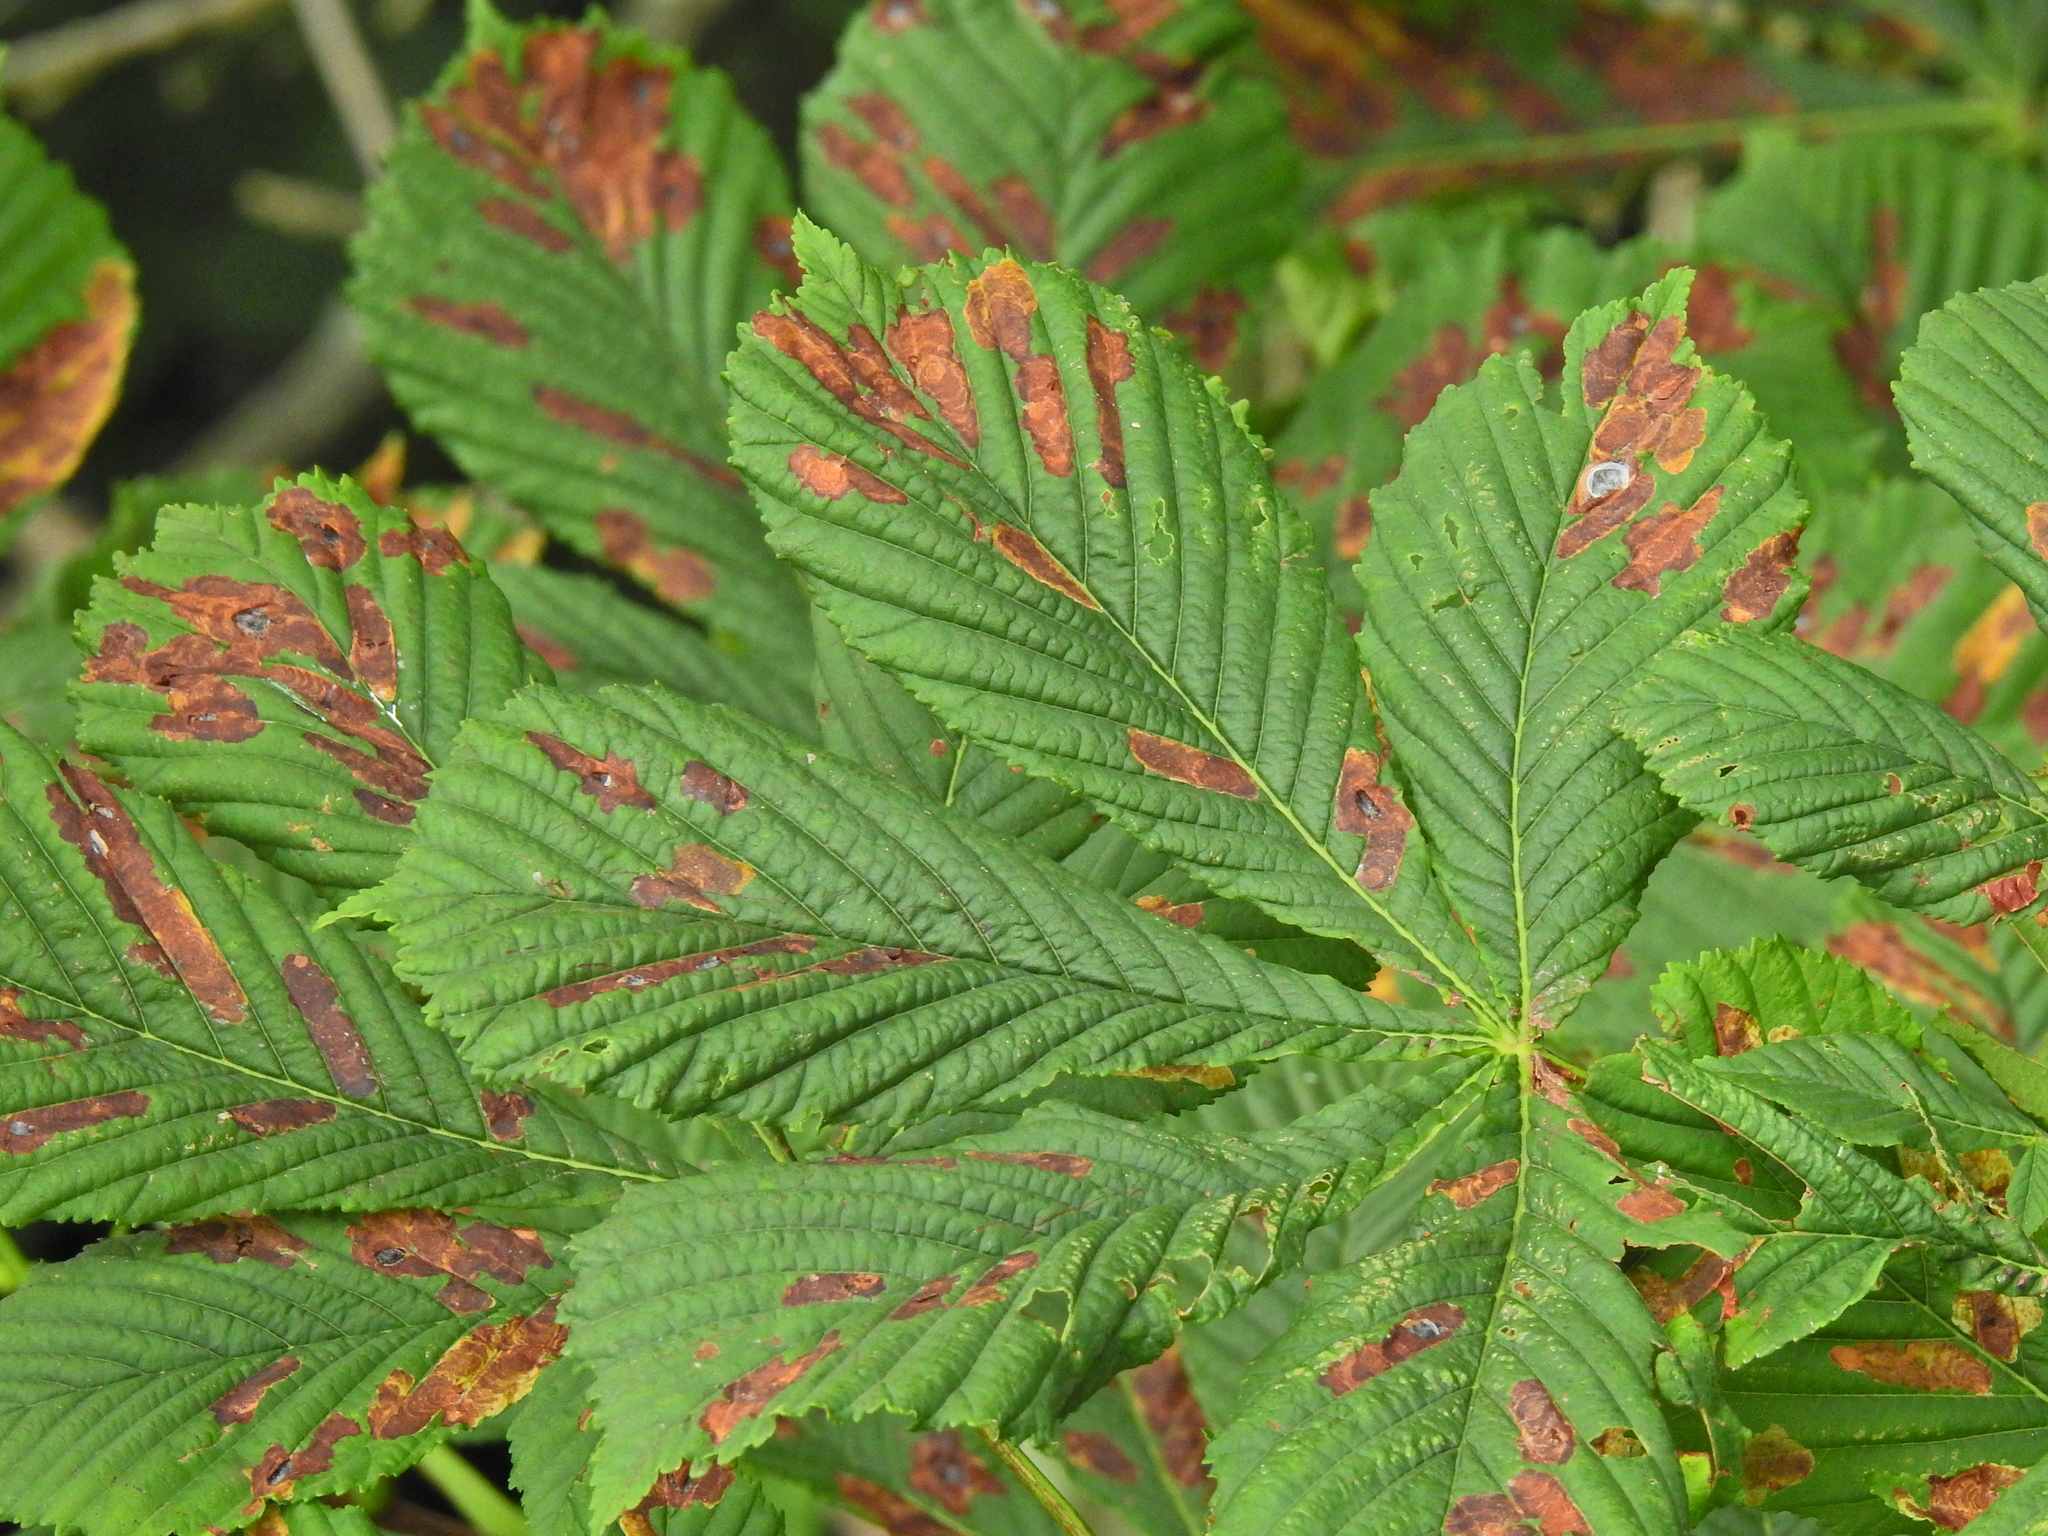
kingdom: Animalia
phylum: Arthropoda
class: Insecta
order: Lepidoptera
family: Gracillariidae
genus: Cameraria
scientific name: Cameraria ohridella
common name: Horse-chestnut leaf-miner
